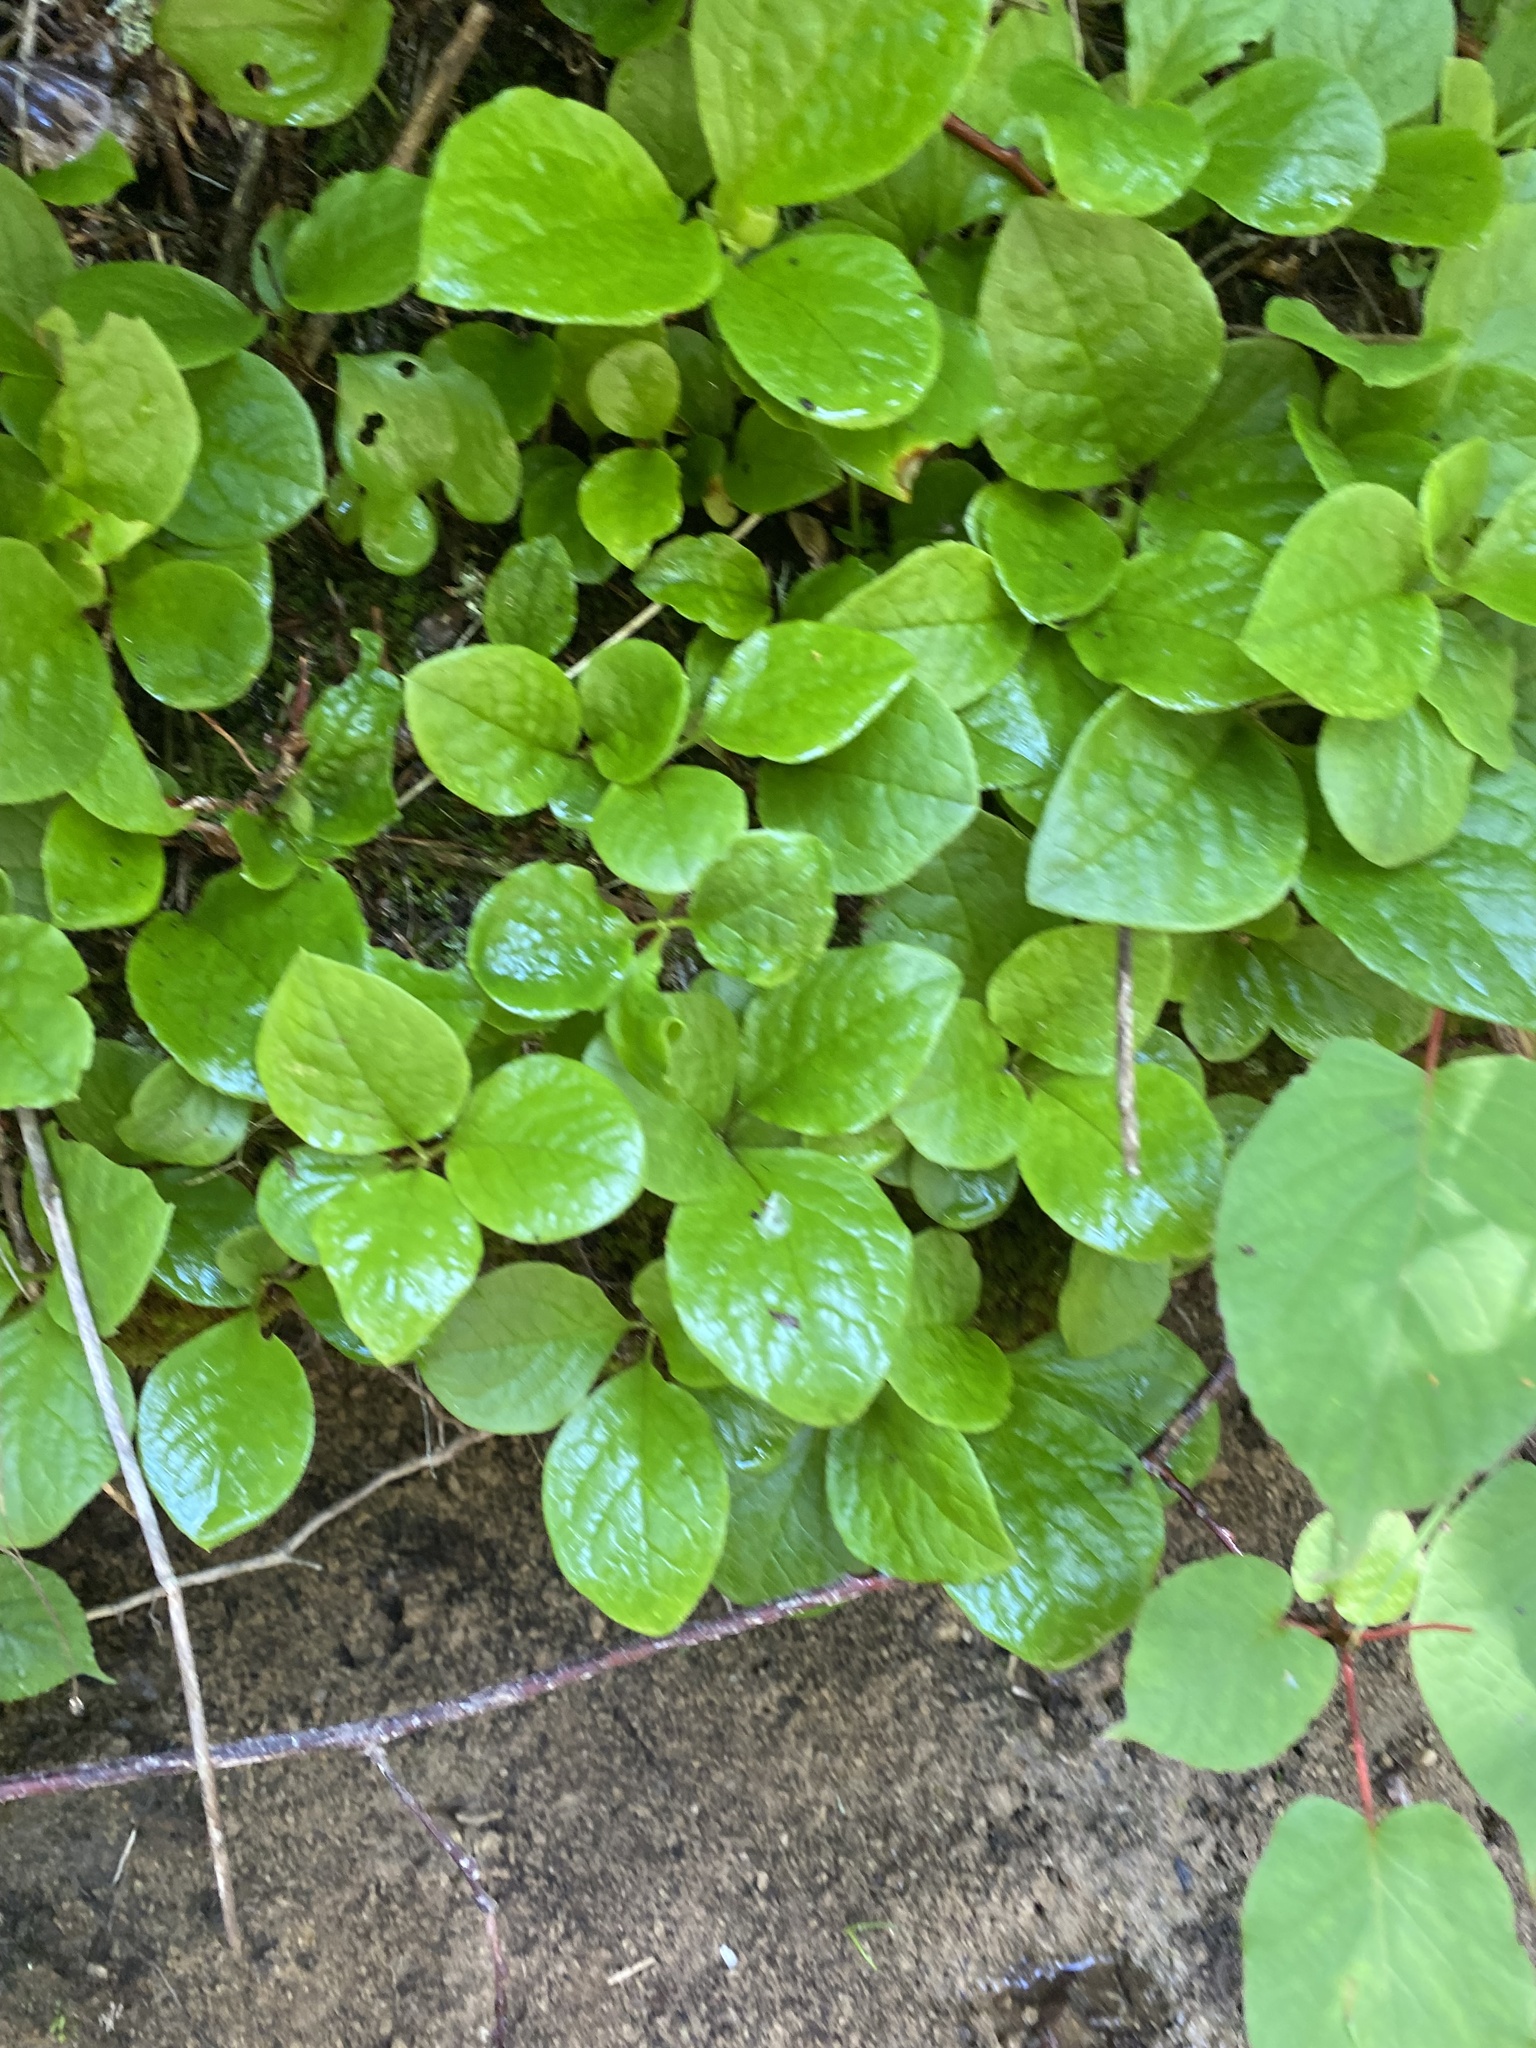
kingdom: Plantae
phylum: Tracheophyta
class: Magnoliopsida
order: Ericales
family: Ericaceae
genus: Vaccinium
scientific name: Vaccinium praestans
